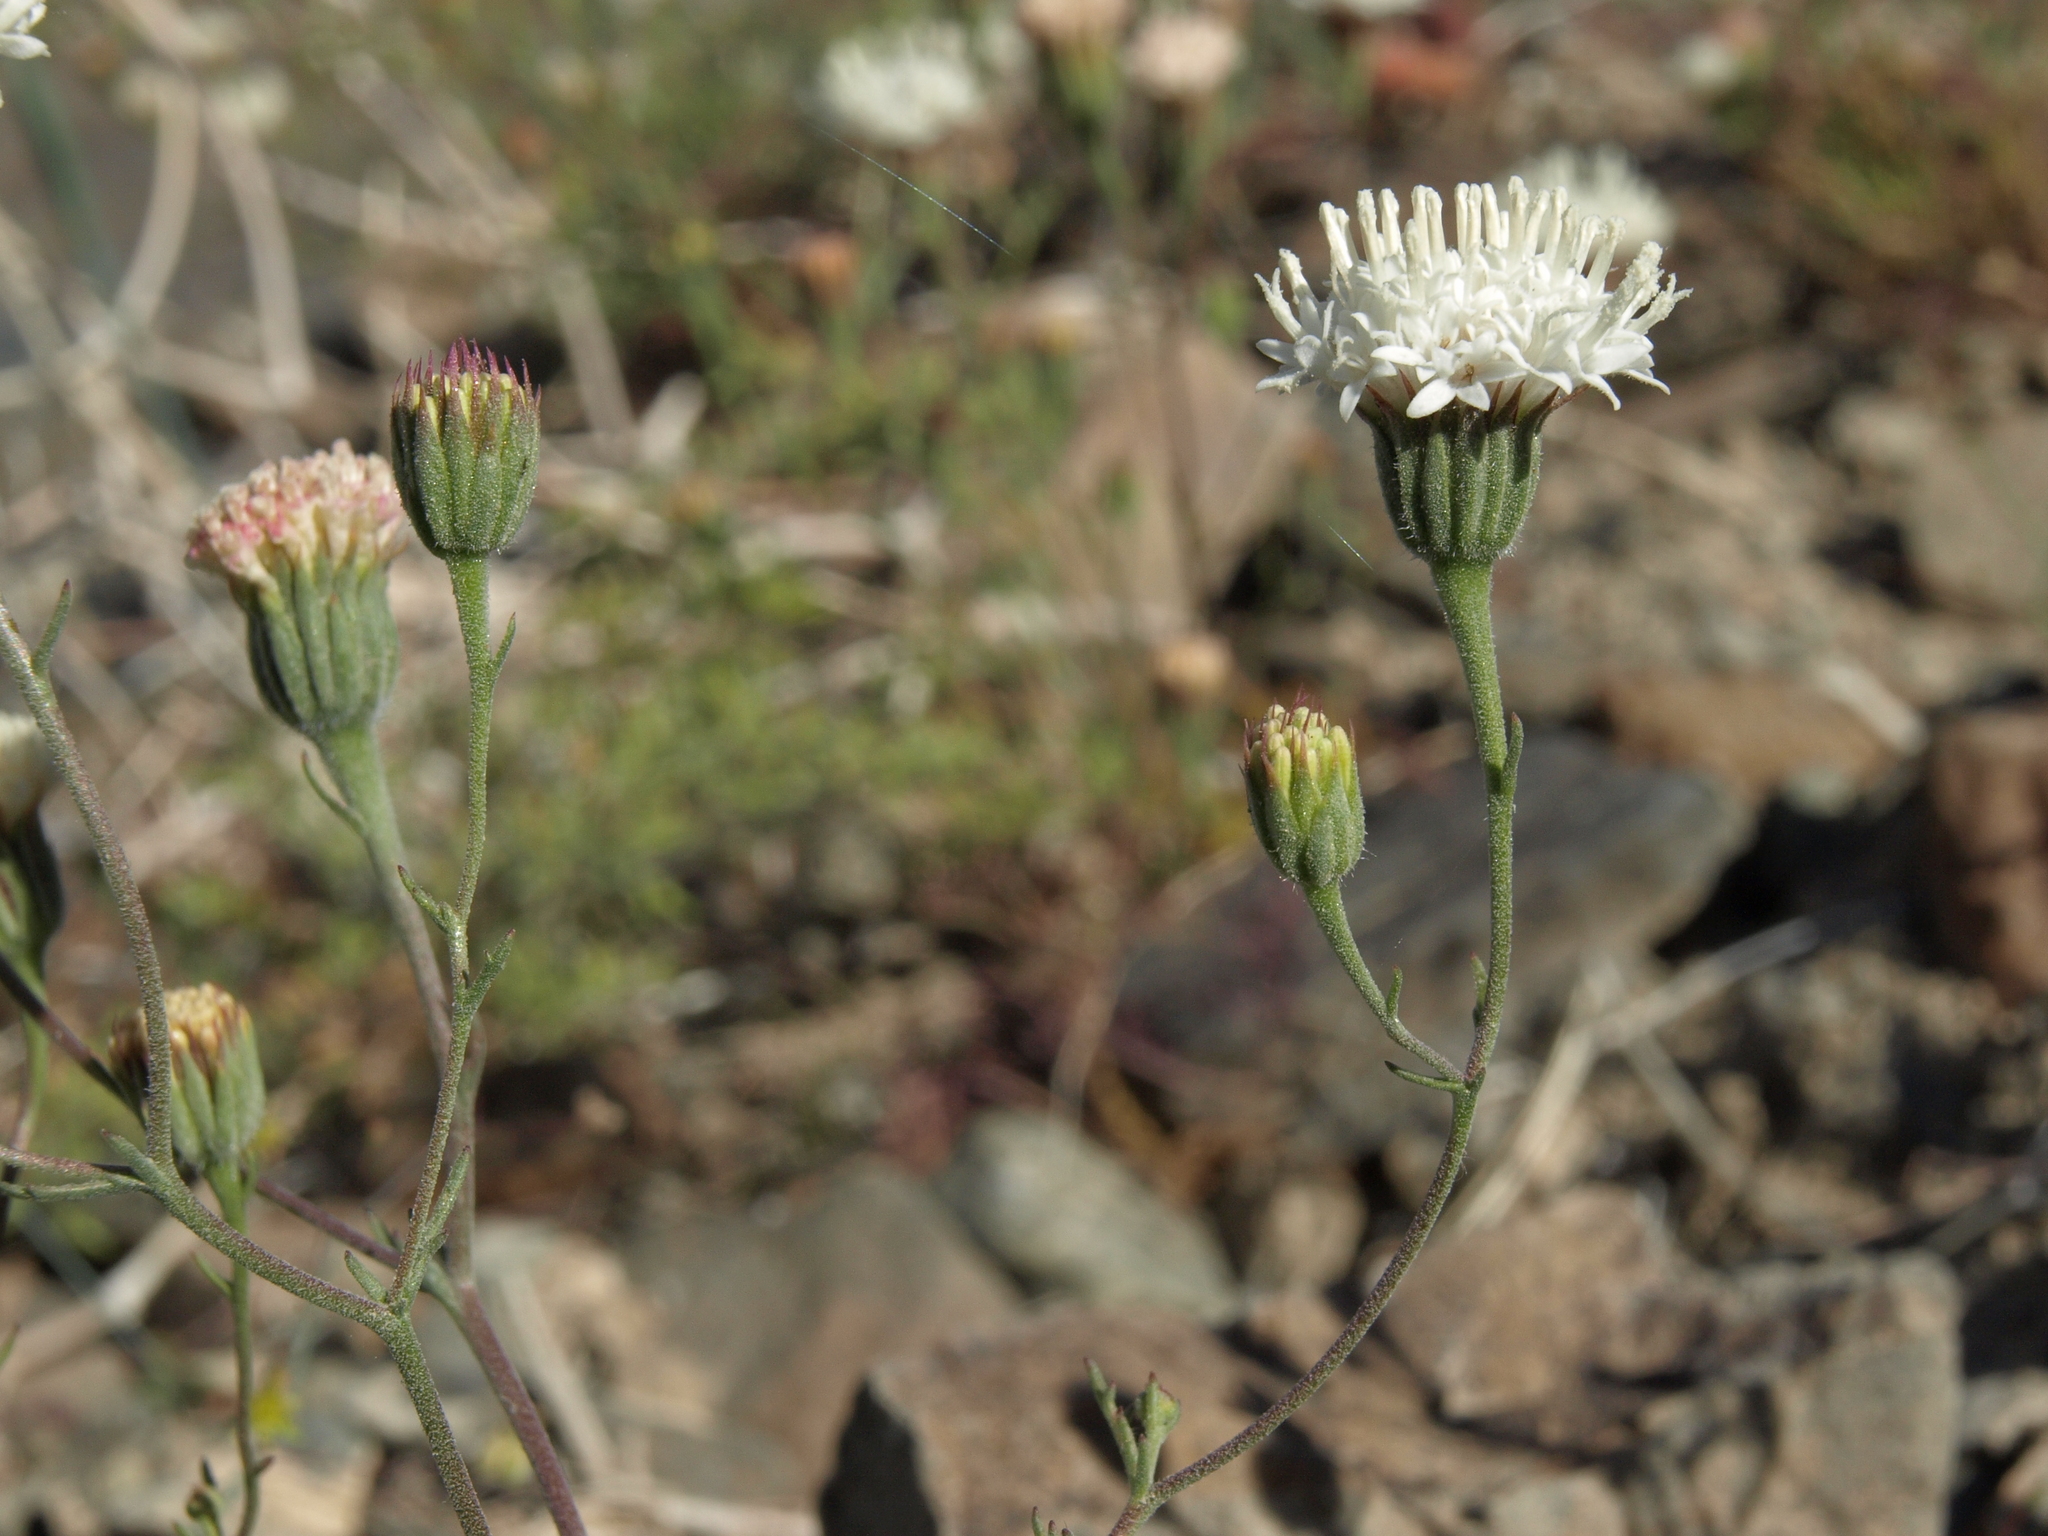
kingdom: Plantae
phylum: Tracheophyta
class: Magnoliopsida
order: Asterales
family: Asteraceae
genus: Chaenactis
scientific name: Chaenactis carphoclinia
